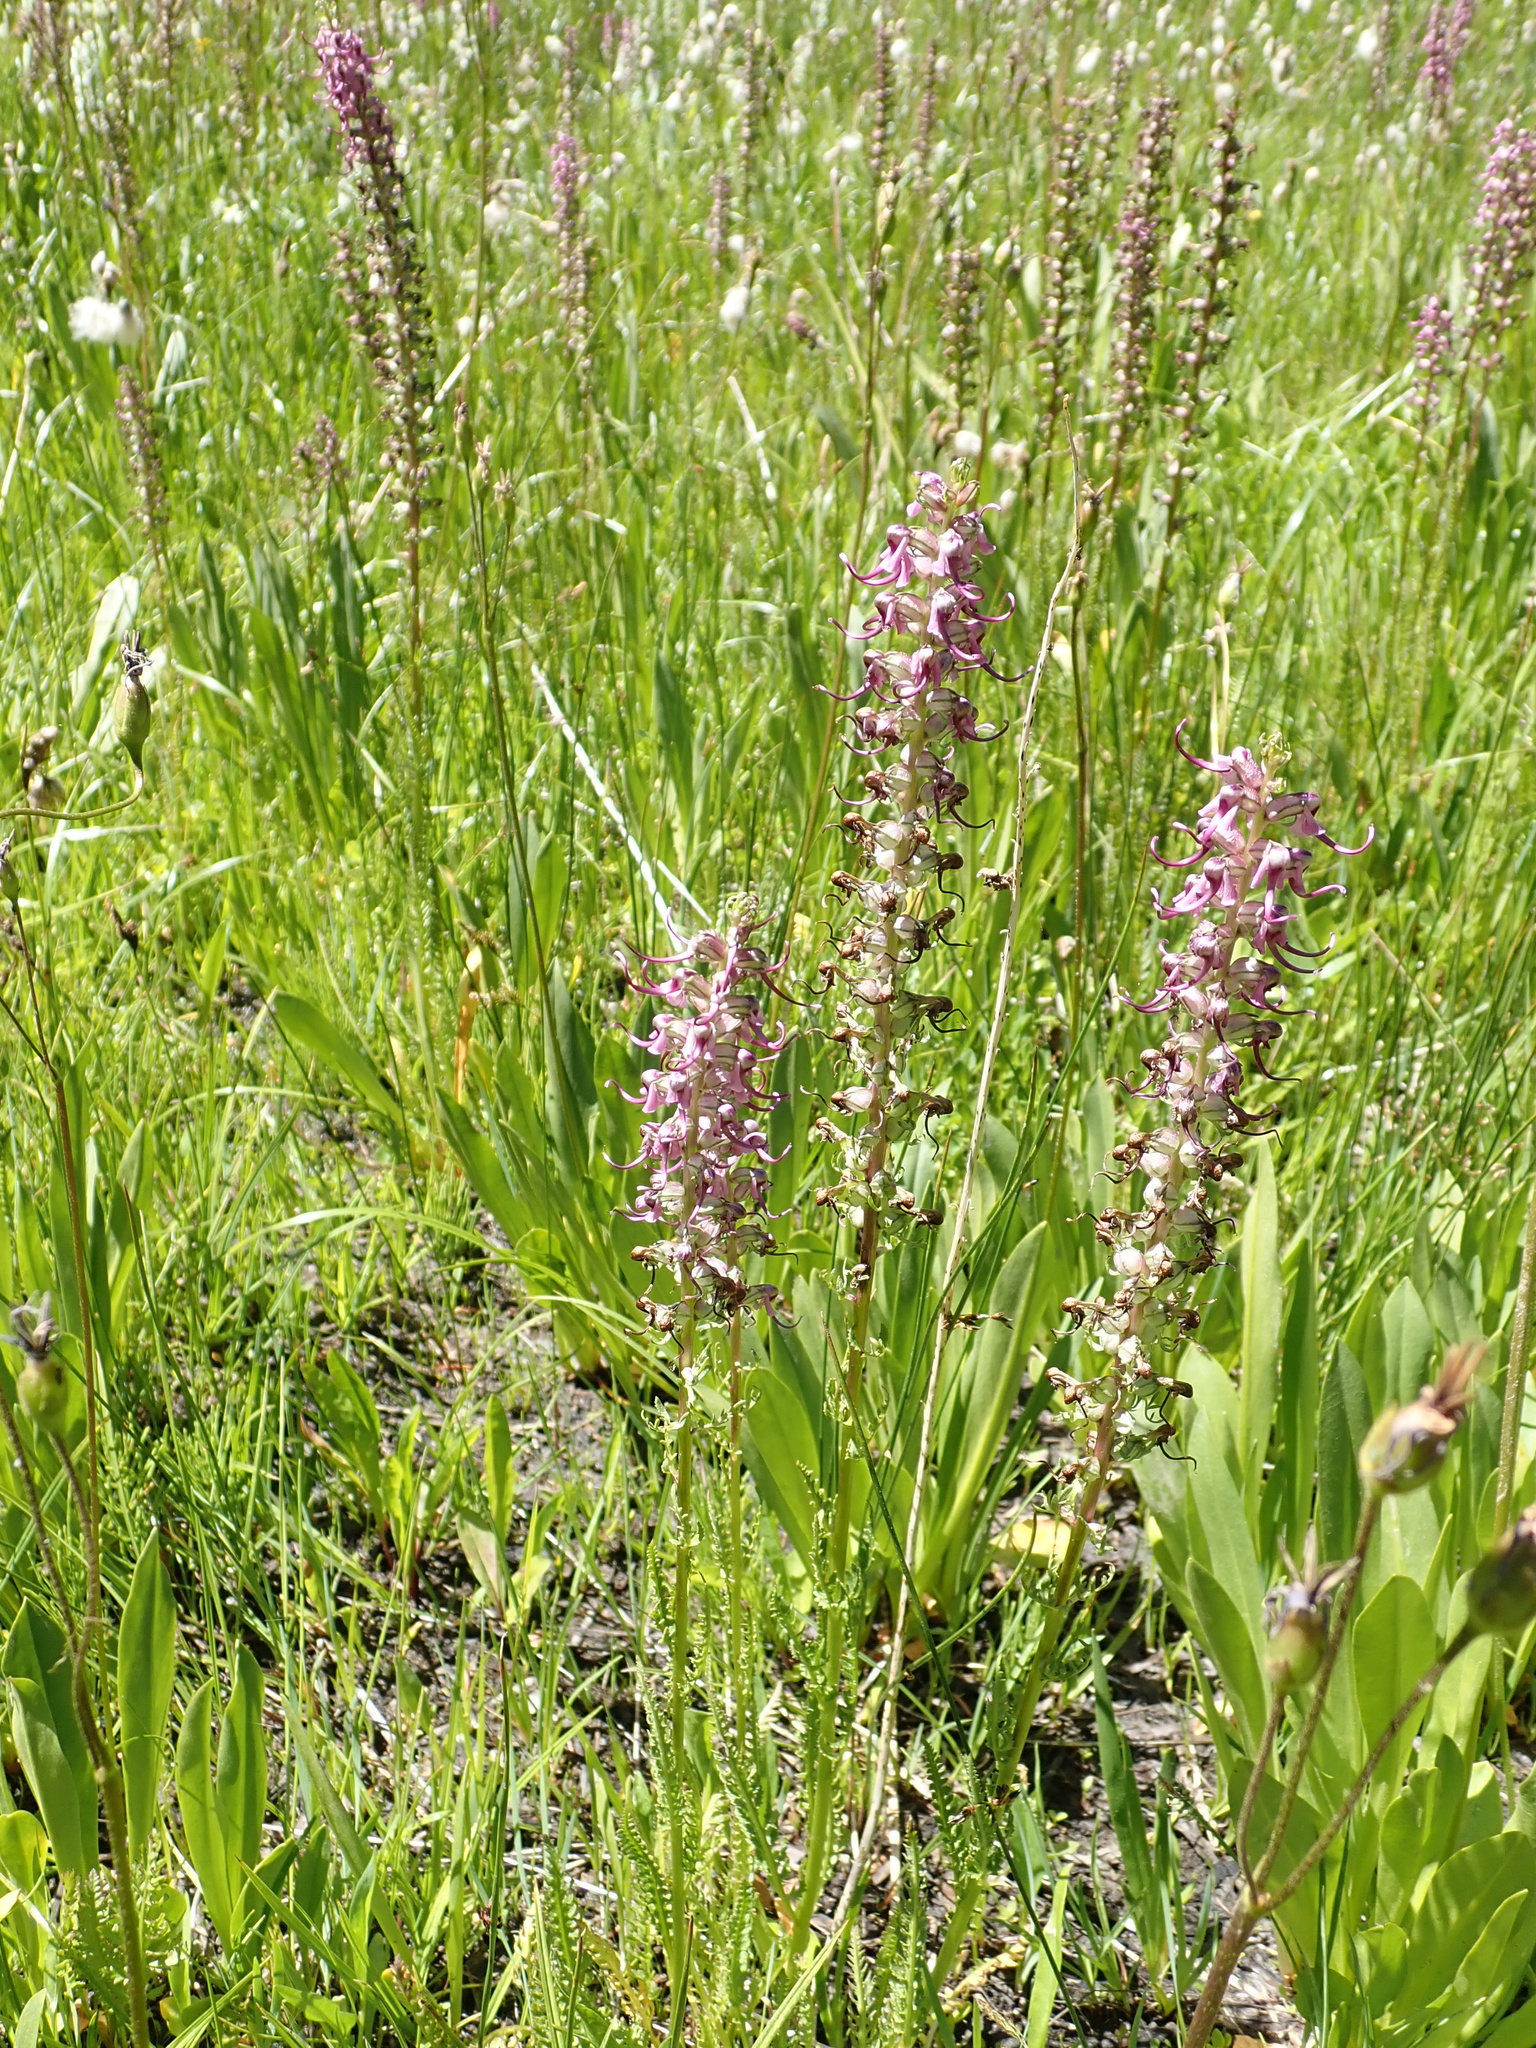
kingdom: Plantae
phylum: Tracheophyta
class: Magnoliopsida
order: Lamiales
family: Orobanchaceae
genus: Pedicularis
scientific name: Pedicularis groenlandica
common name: Elephant's-head
